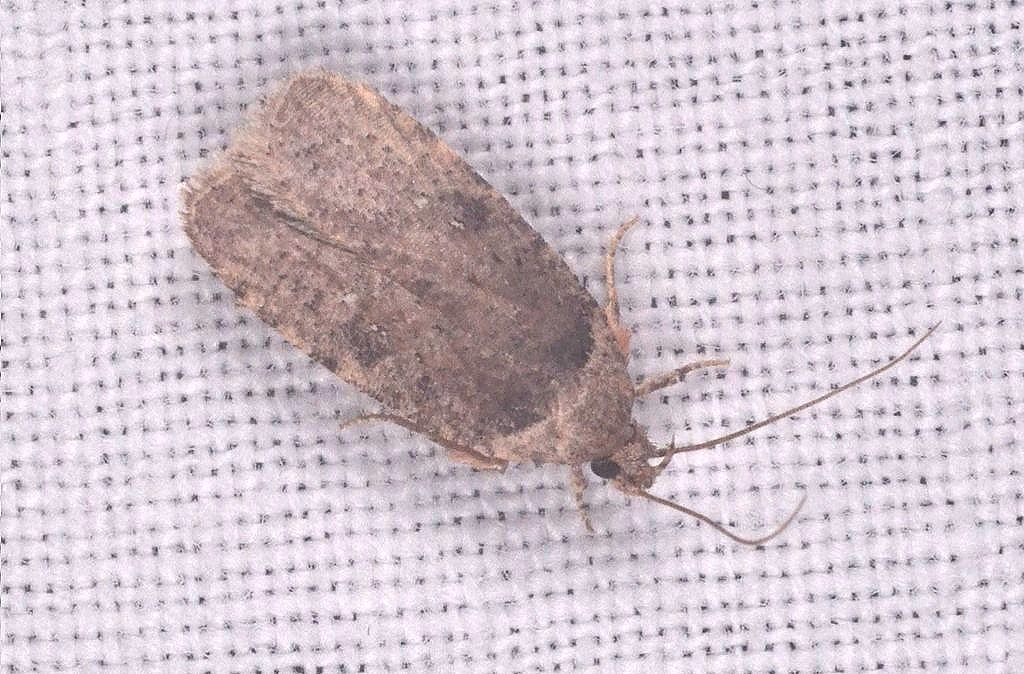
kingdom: Animalia
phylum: Arthropoda
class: Insecta
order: Lepidoptera
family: Depressariidae
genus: Agonopterix
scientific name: Agonopterix multiplicella
